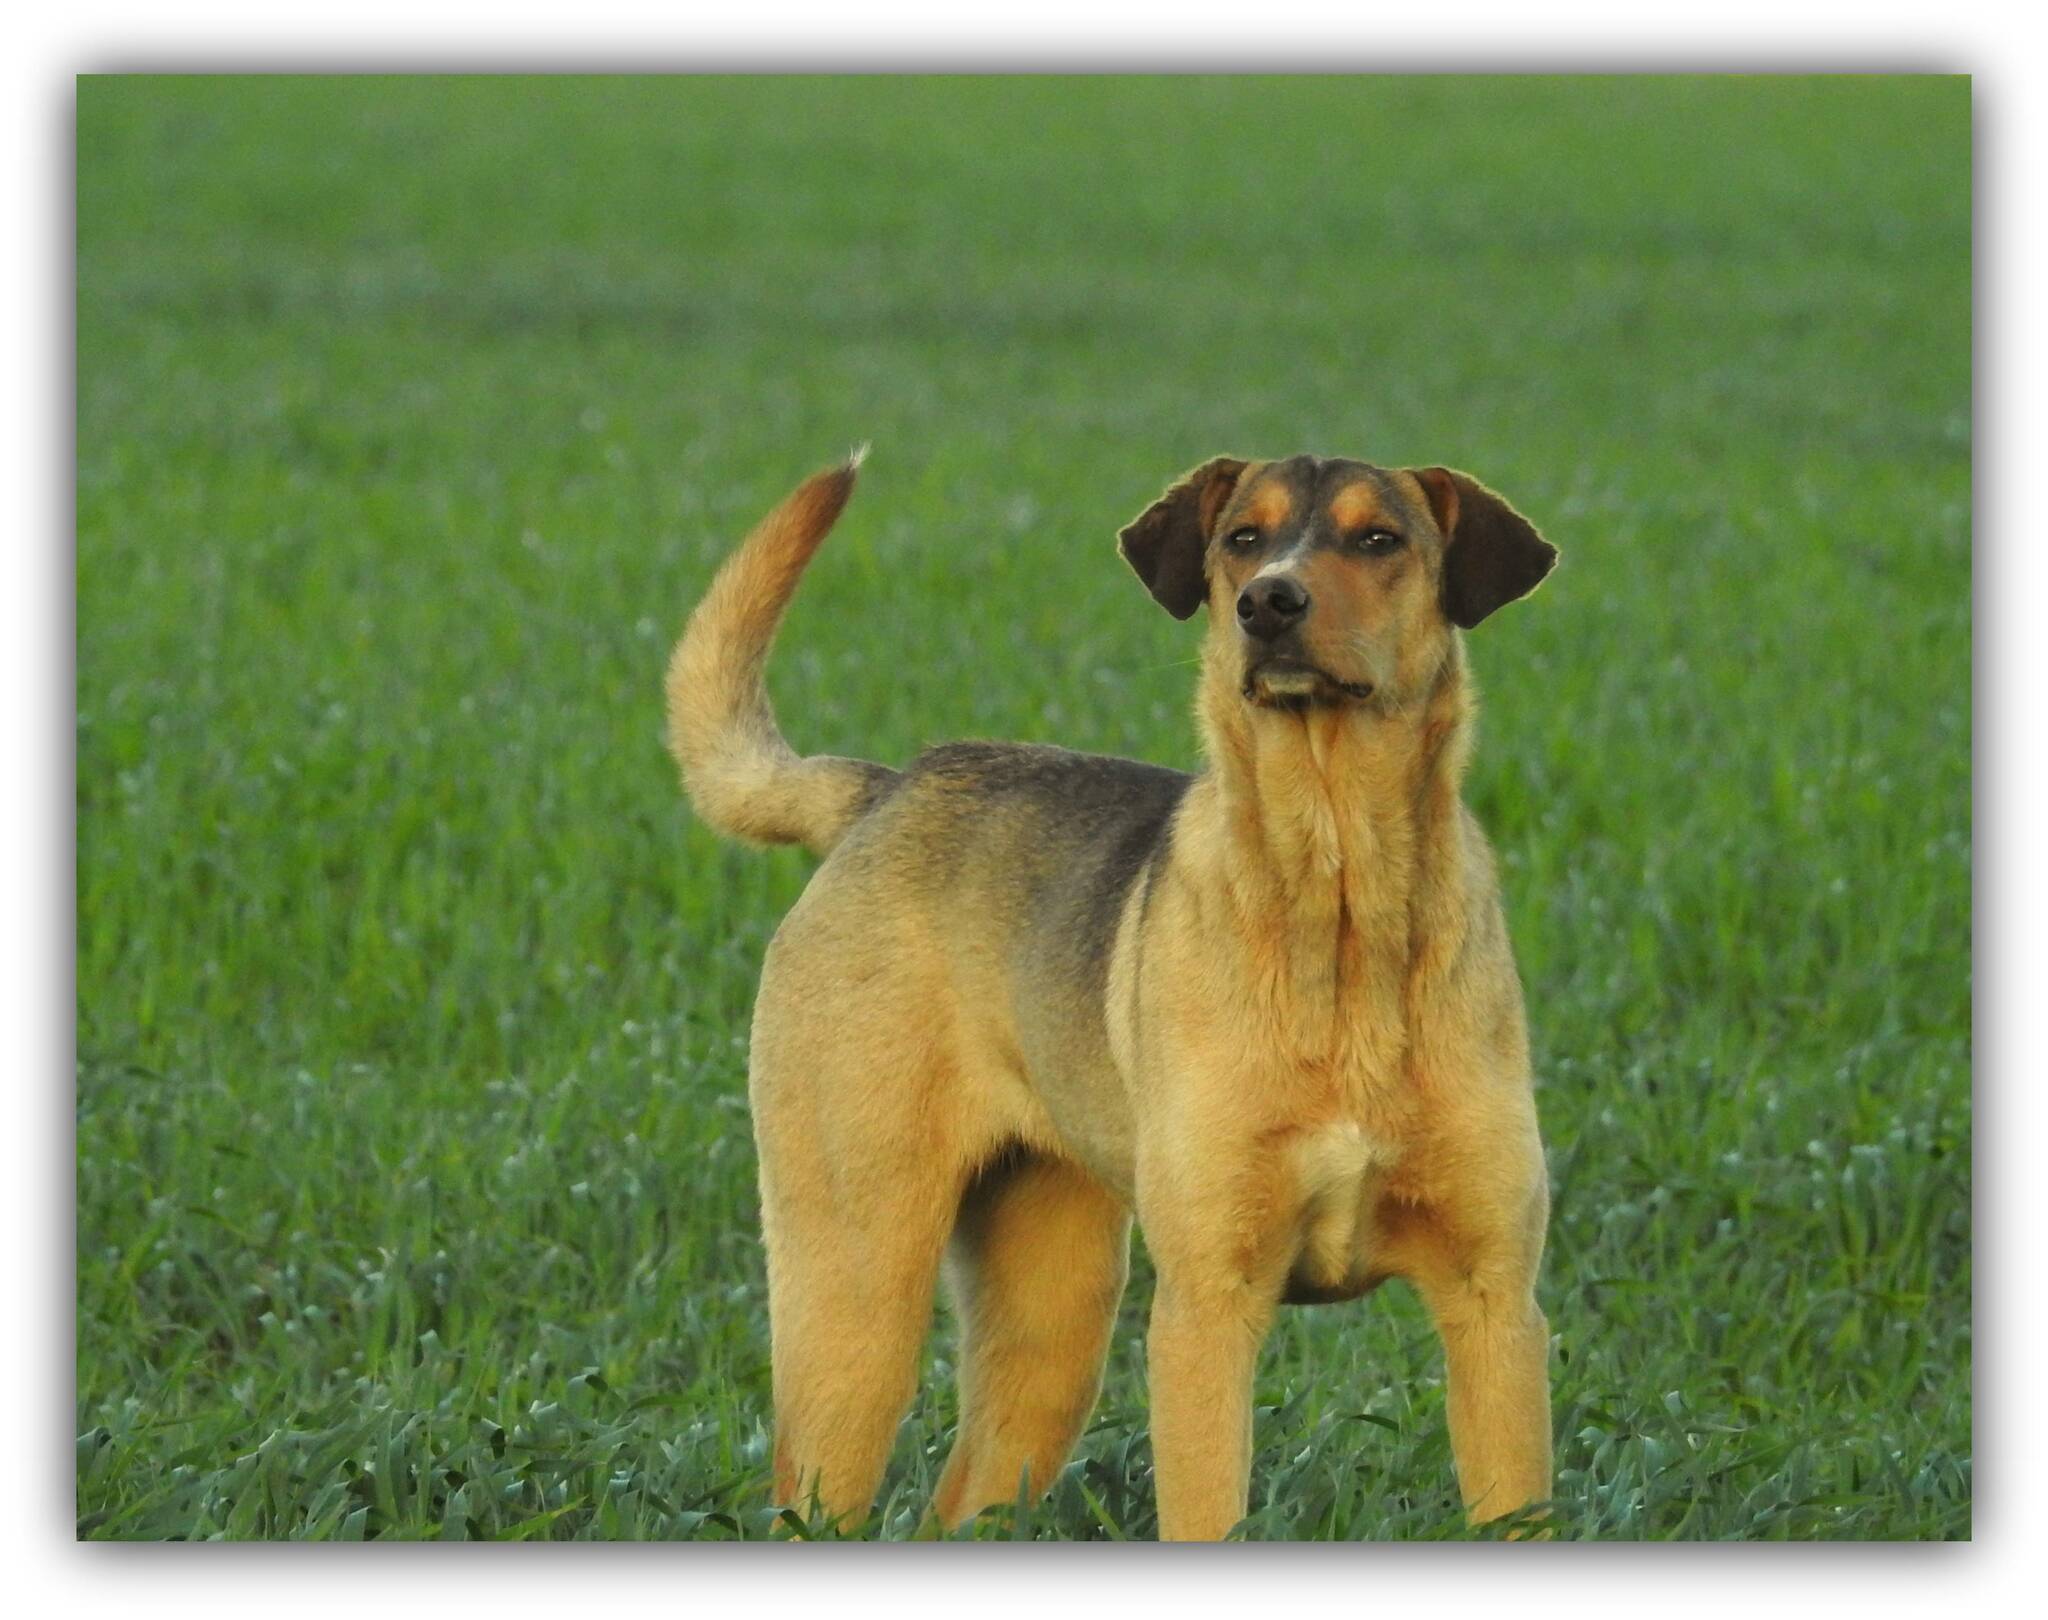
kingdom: Animalia
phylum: Chordata
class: Mammalia
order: Carnivora
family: Canidae
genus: Canis
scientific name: Canis lupus
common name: Gray wolf
